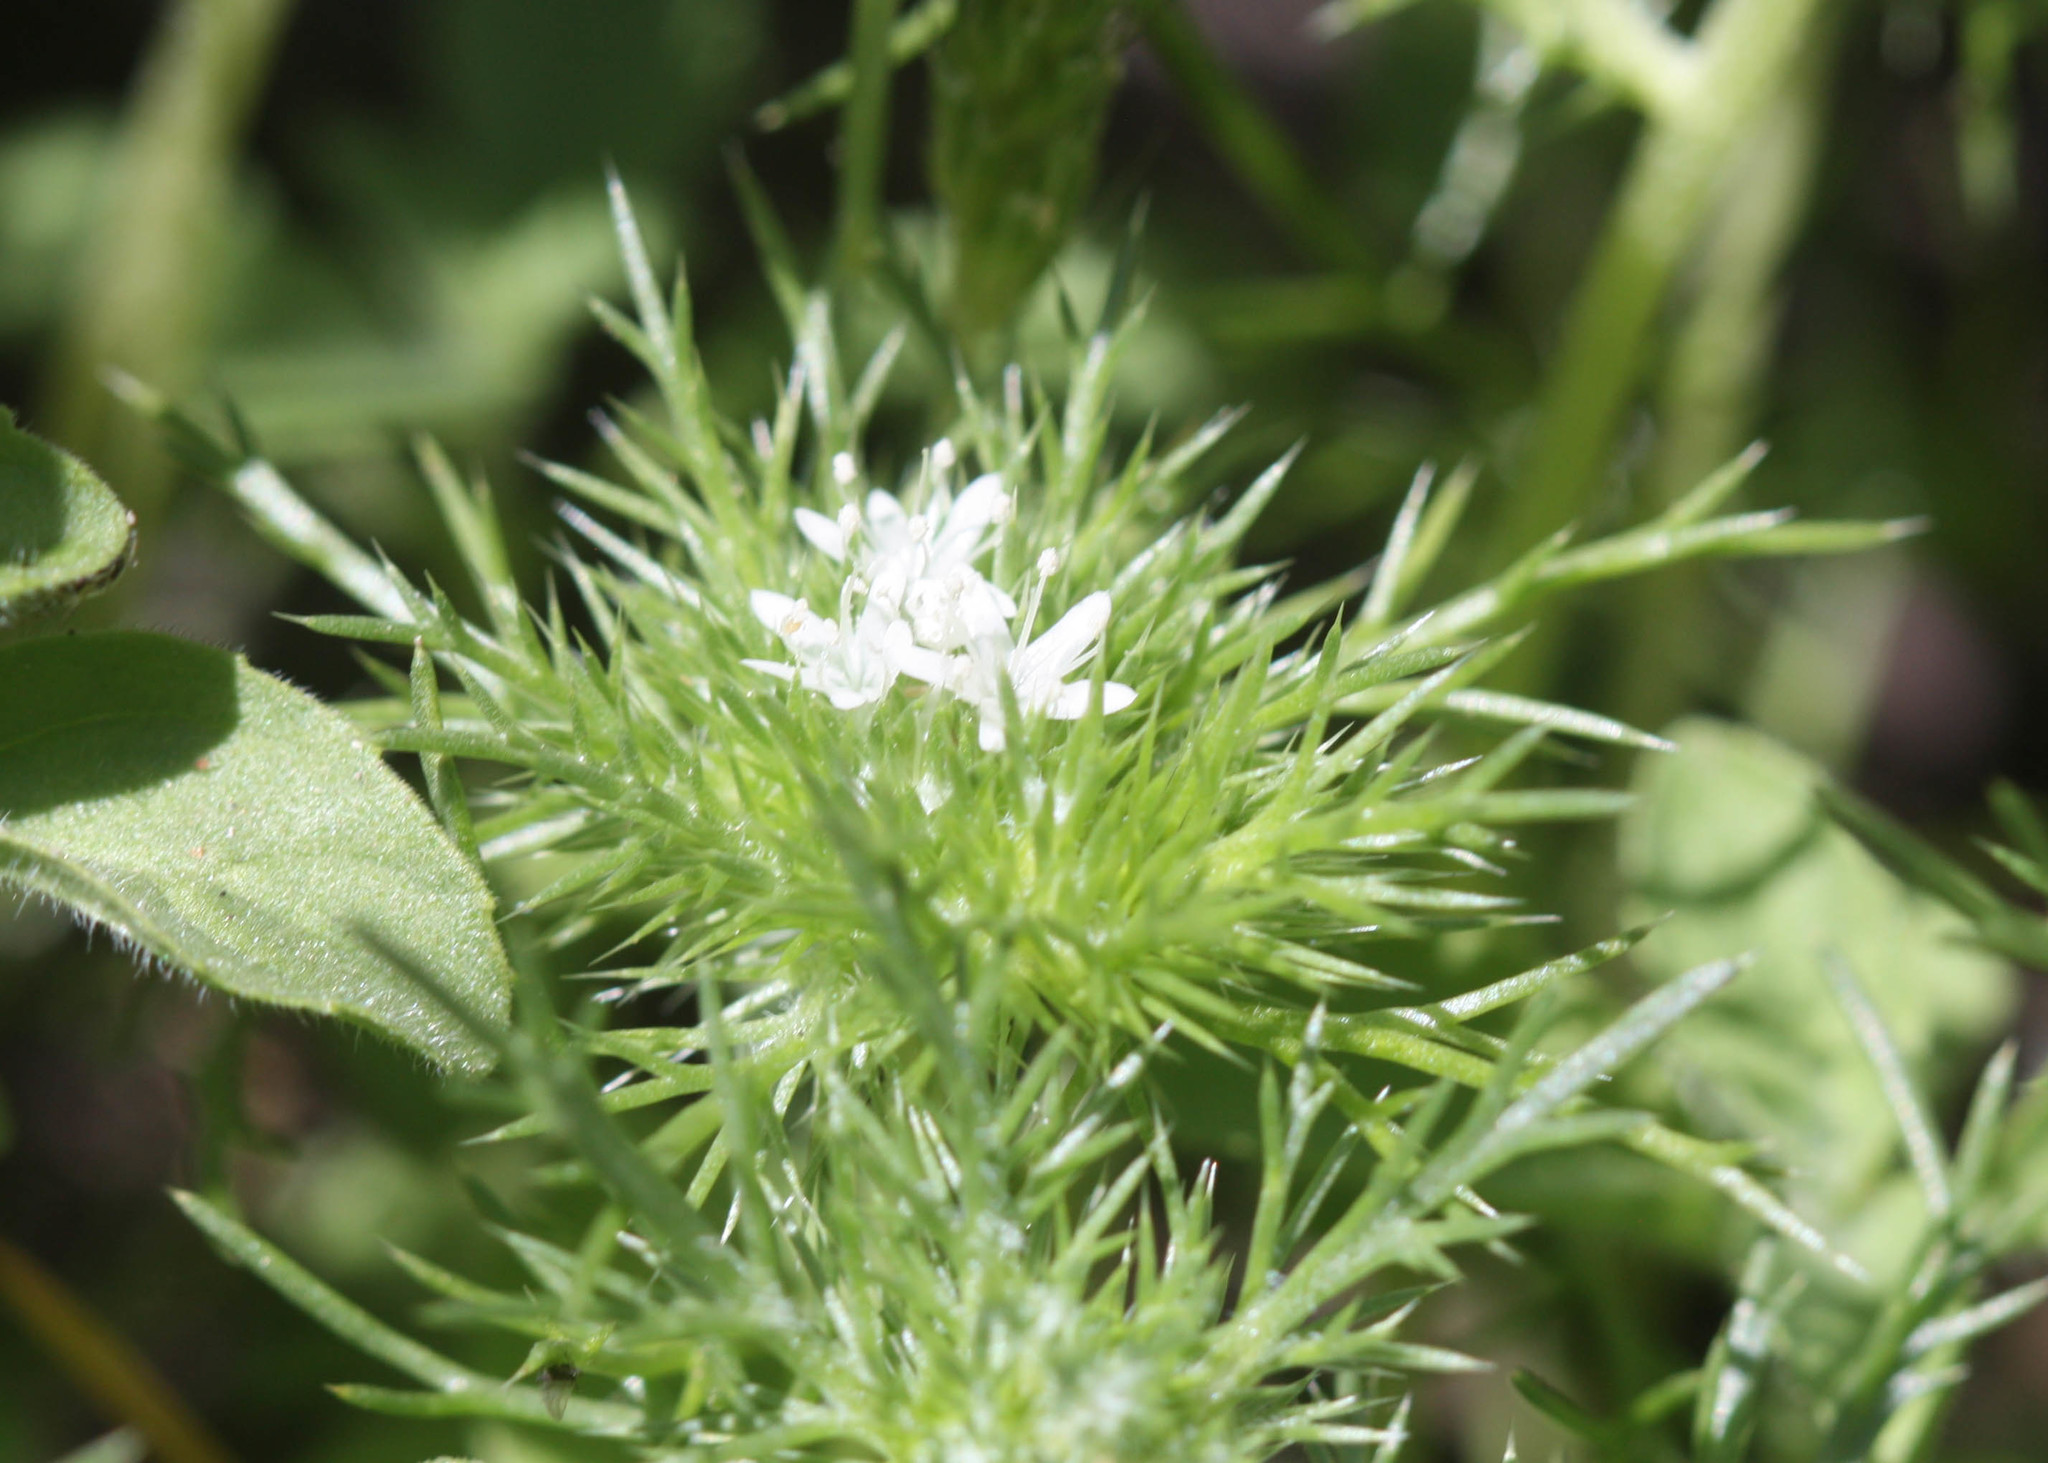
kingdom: Plantae
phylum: Tracheophyta
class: Magnoliopsida
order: Ericales
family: Polemoniaceae
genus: Navarretia
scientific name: Navarretia leucocephala
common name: White-flowered navarretia
